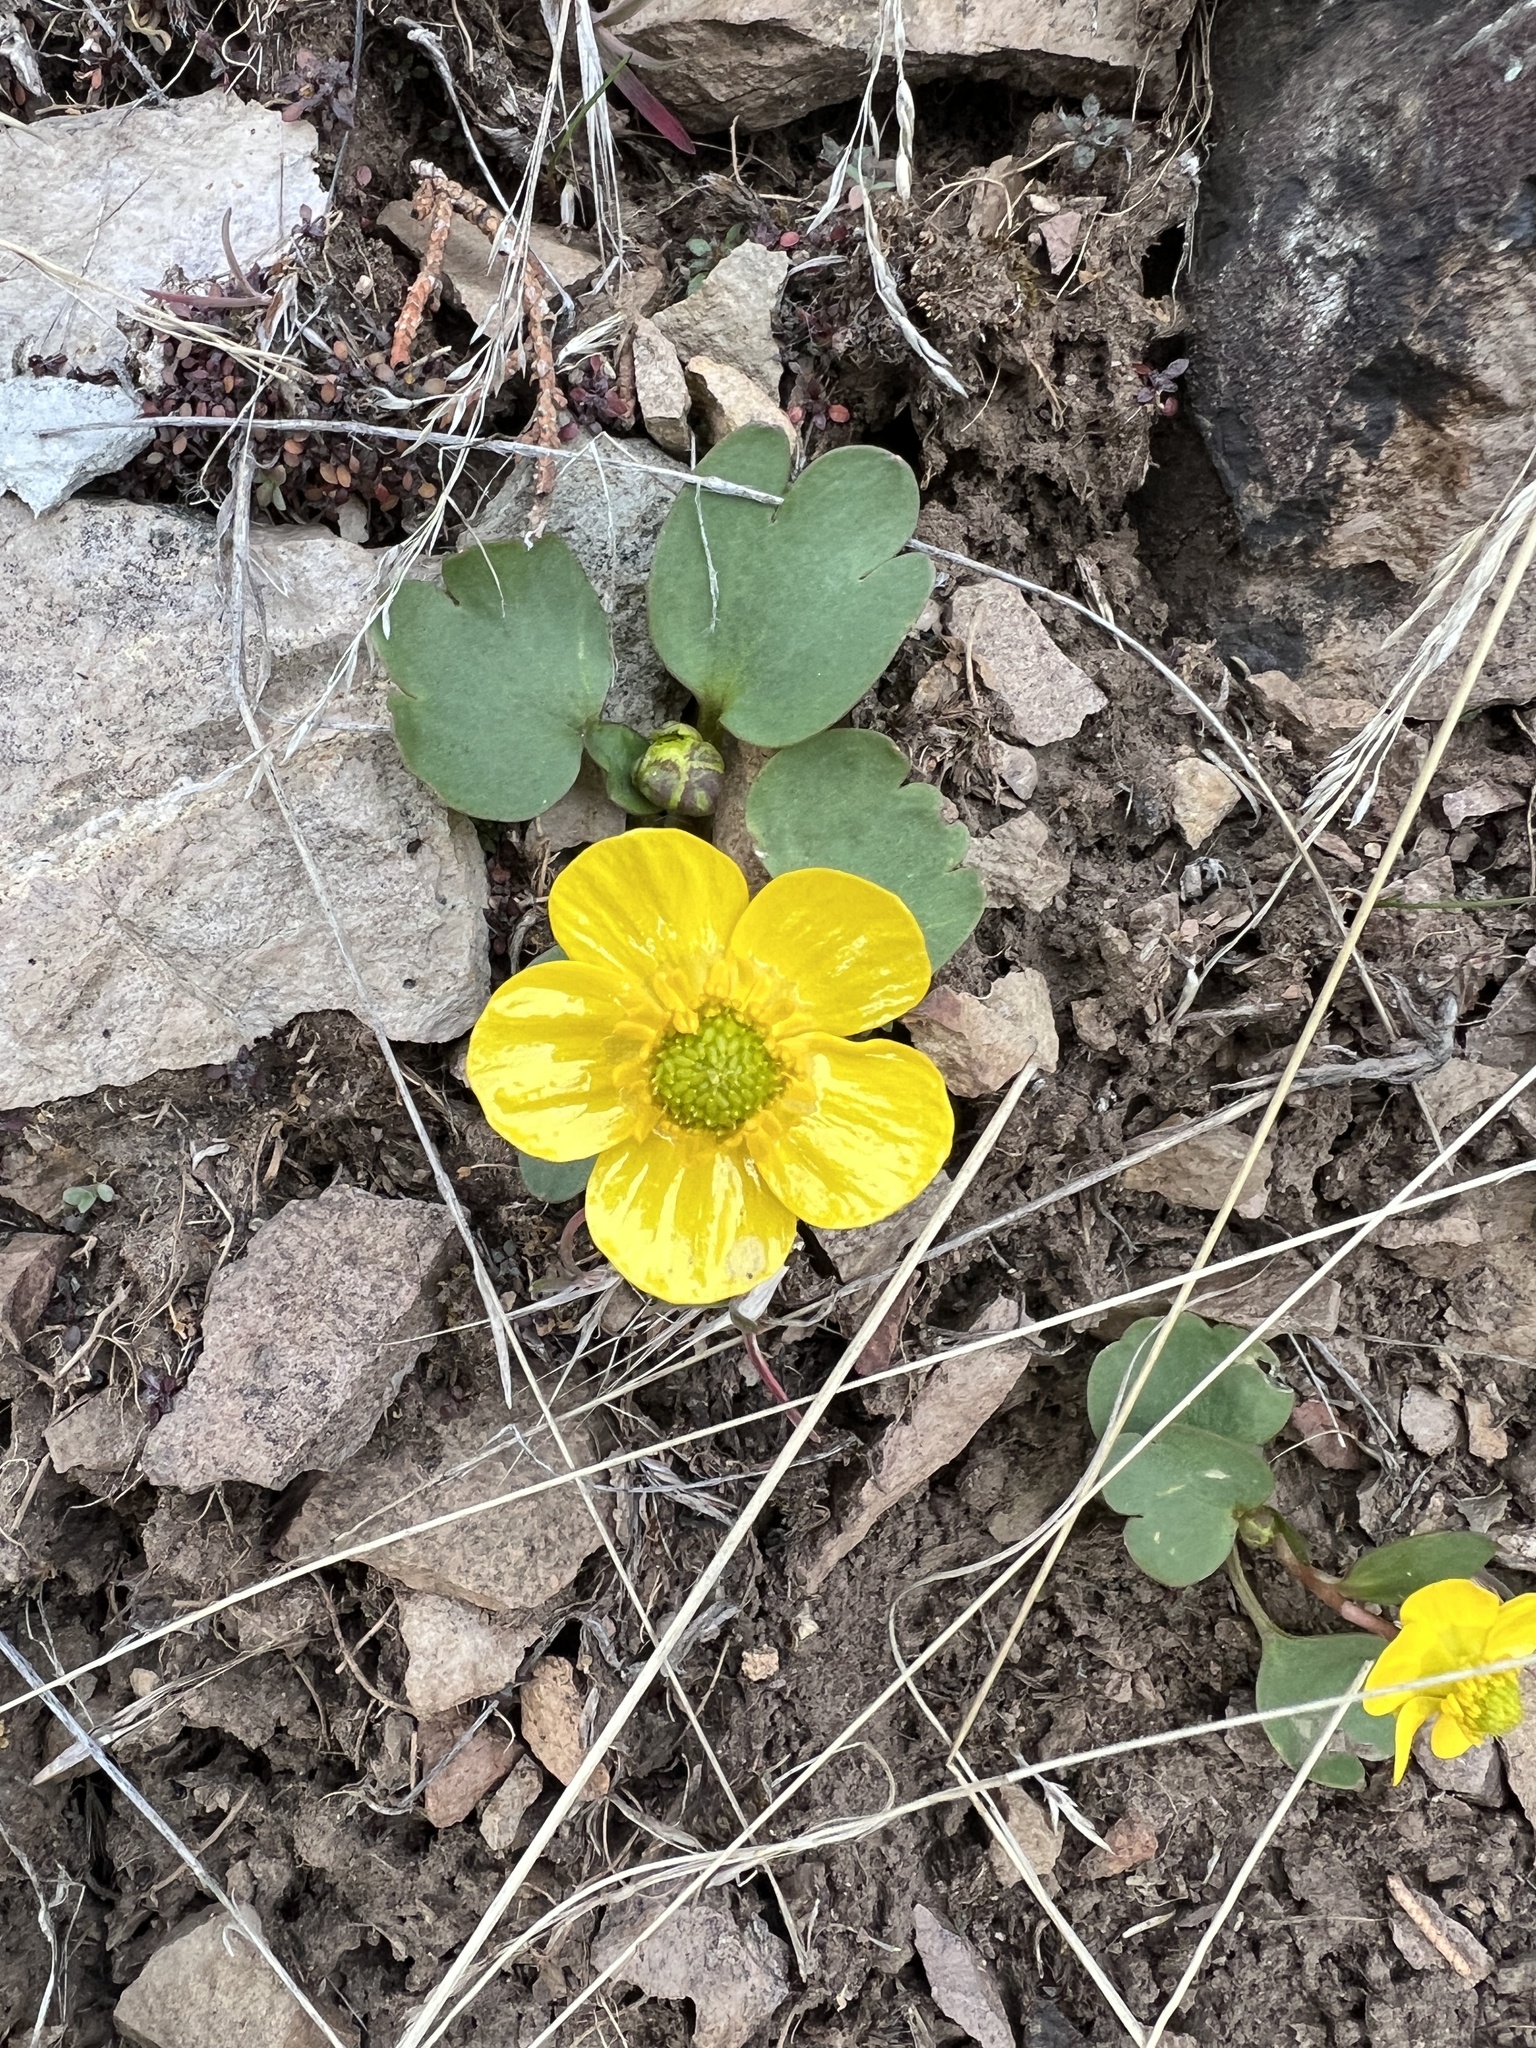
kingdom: Plantae
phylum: Tracheophyta
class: Magnoliopsida
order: Ranunculales
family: Ranunculaceae
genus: Ranunculus
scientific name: Ranunculus glaberrimus
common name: Sagebrush buttercup
